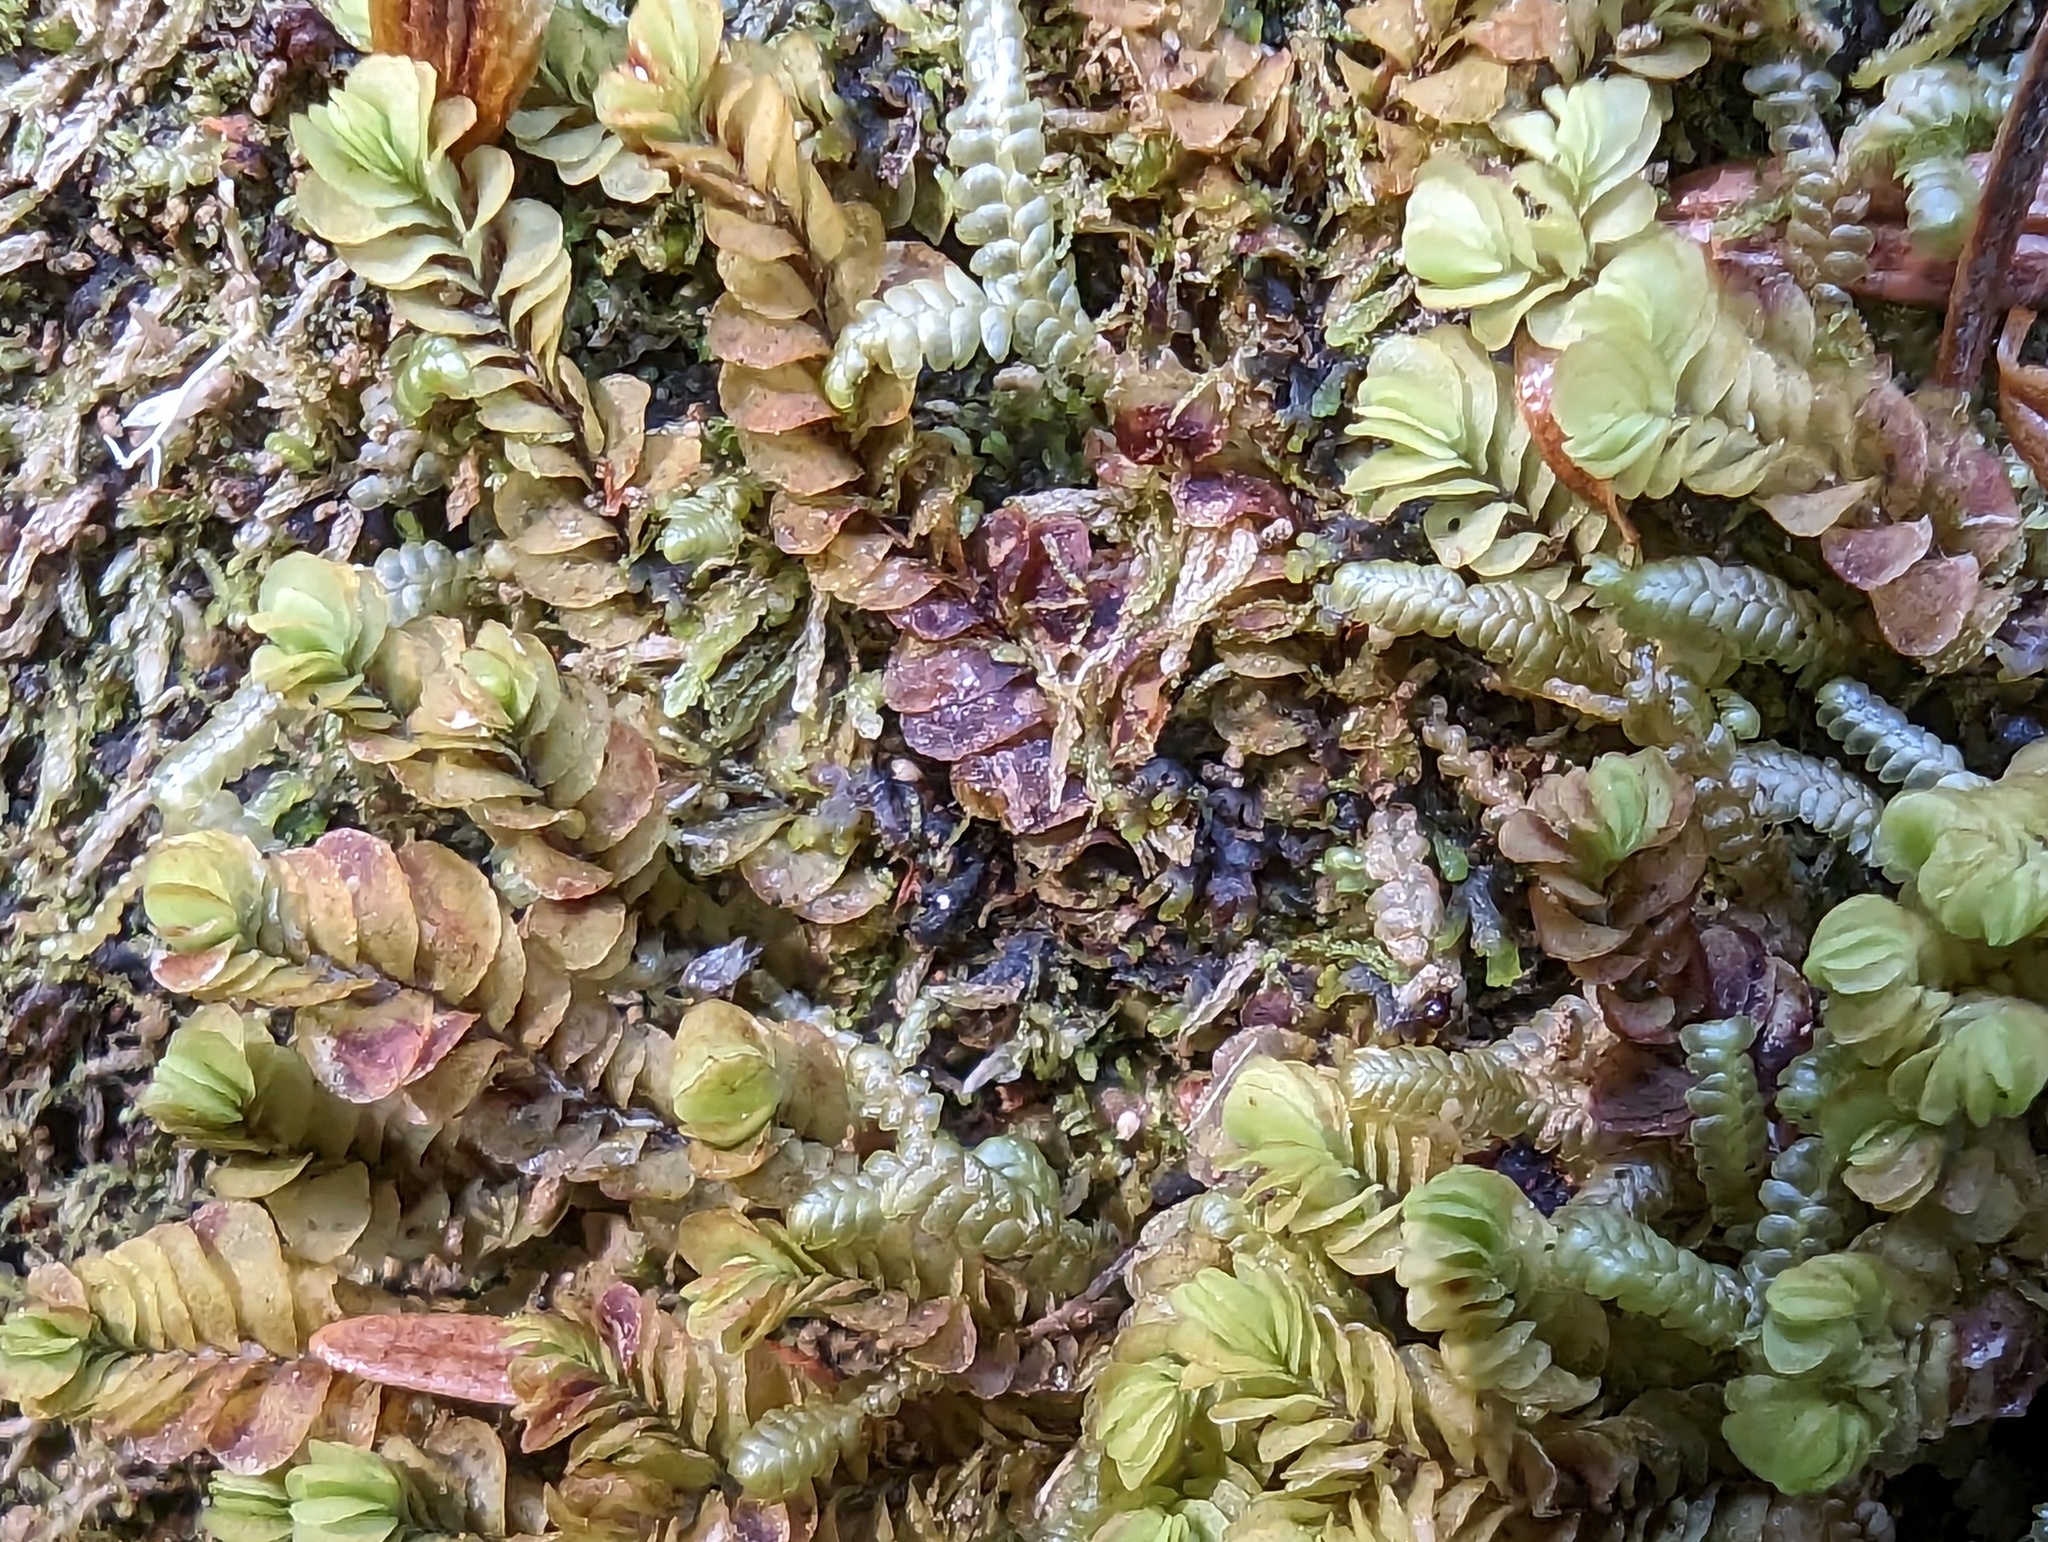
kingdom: Plantae
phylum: Marchantiophyta
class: Jungermanniopsida
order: Jungermanniales
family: Myliaceae
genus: Mylia
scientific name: Mylia taylorii
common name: Taylor s flapwort
